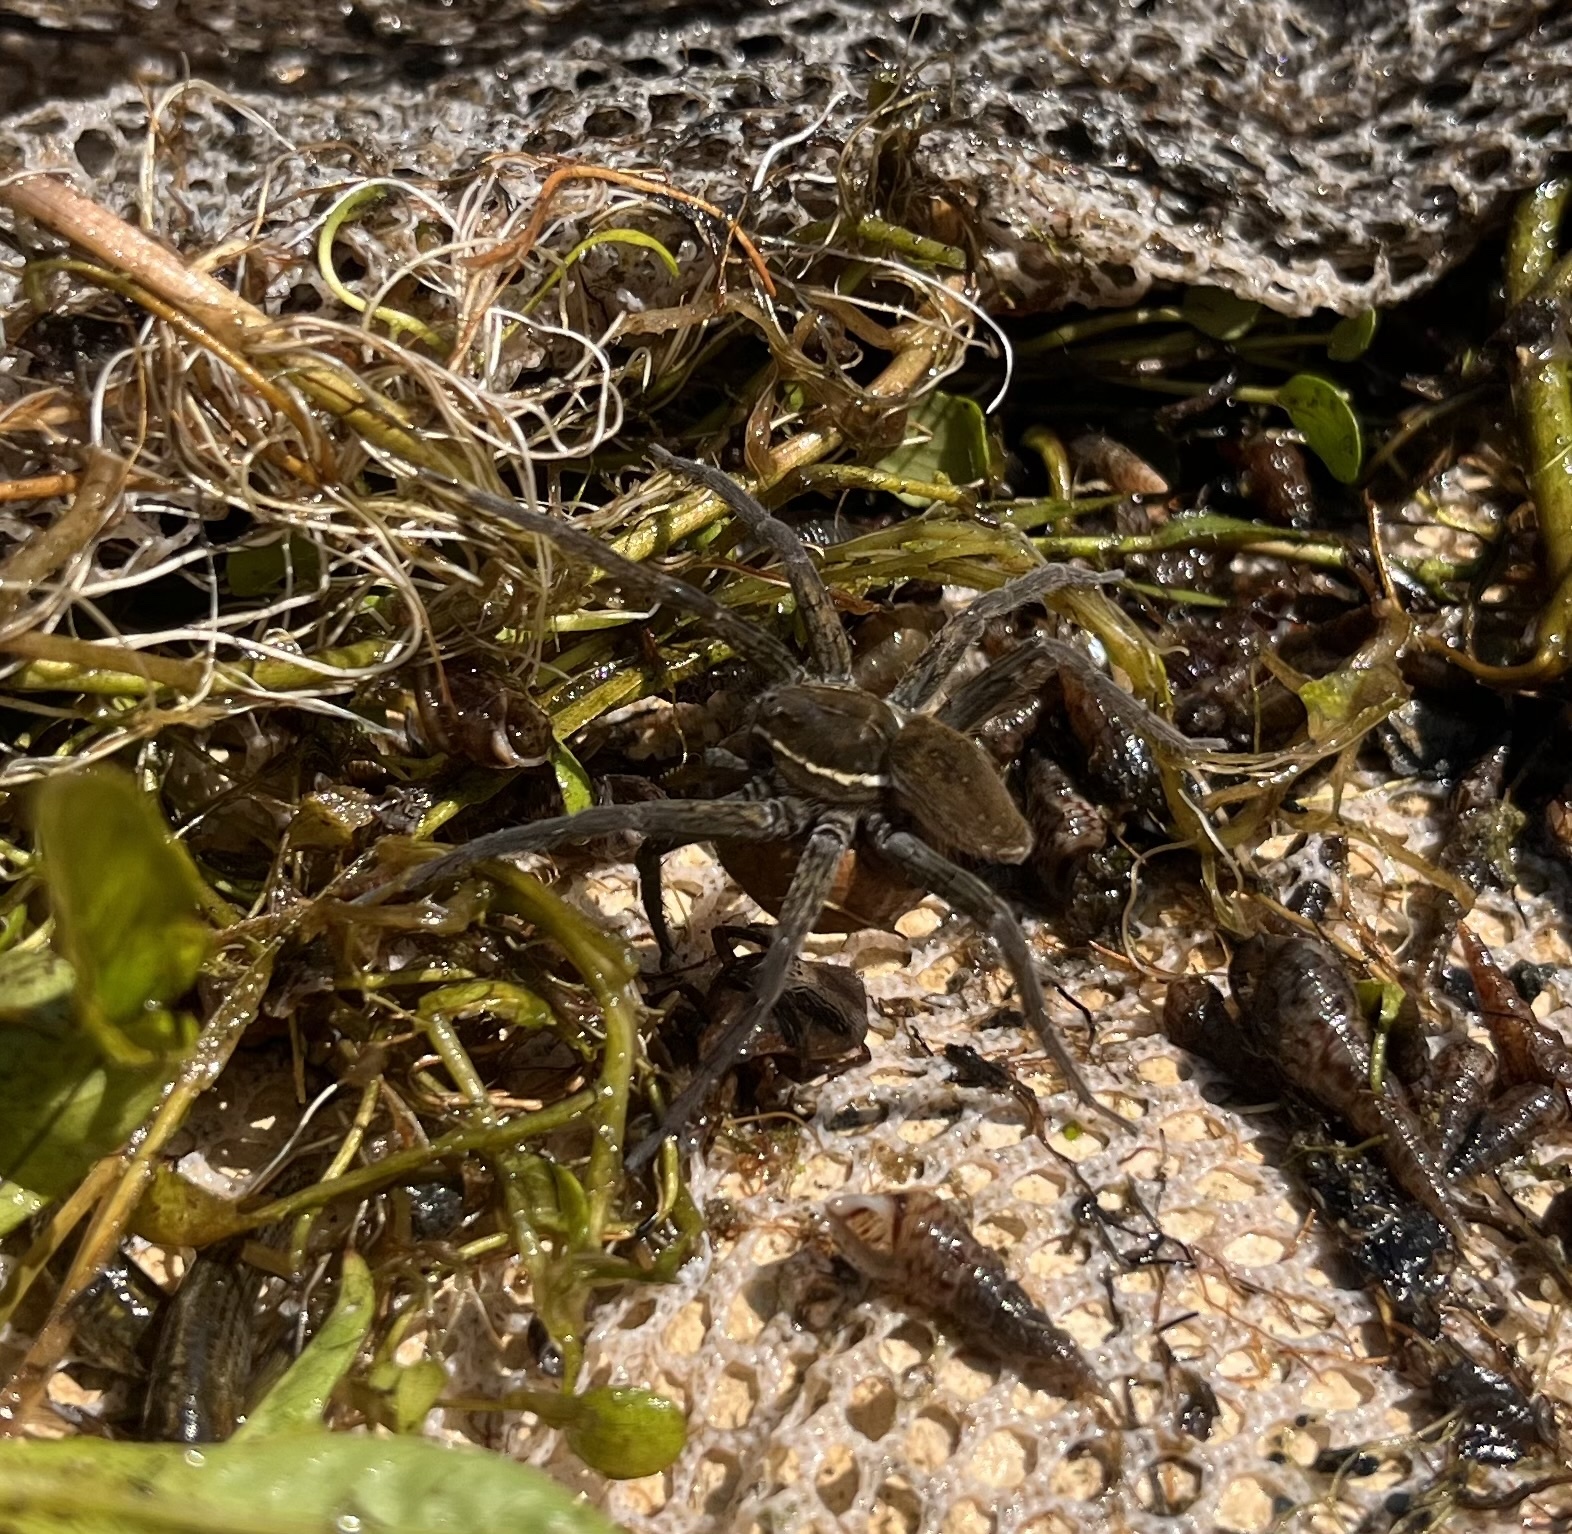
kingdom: Animalia
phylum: Arthropoda
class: Arachnida
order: Araneae
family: Pisauridae
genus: Dolomedes
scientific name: Dolomedes triton
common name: Six-spotted fishing spider
